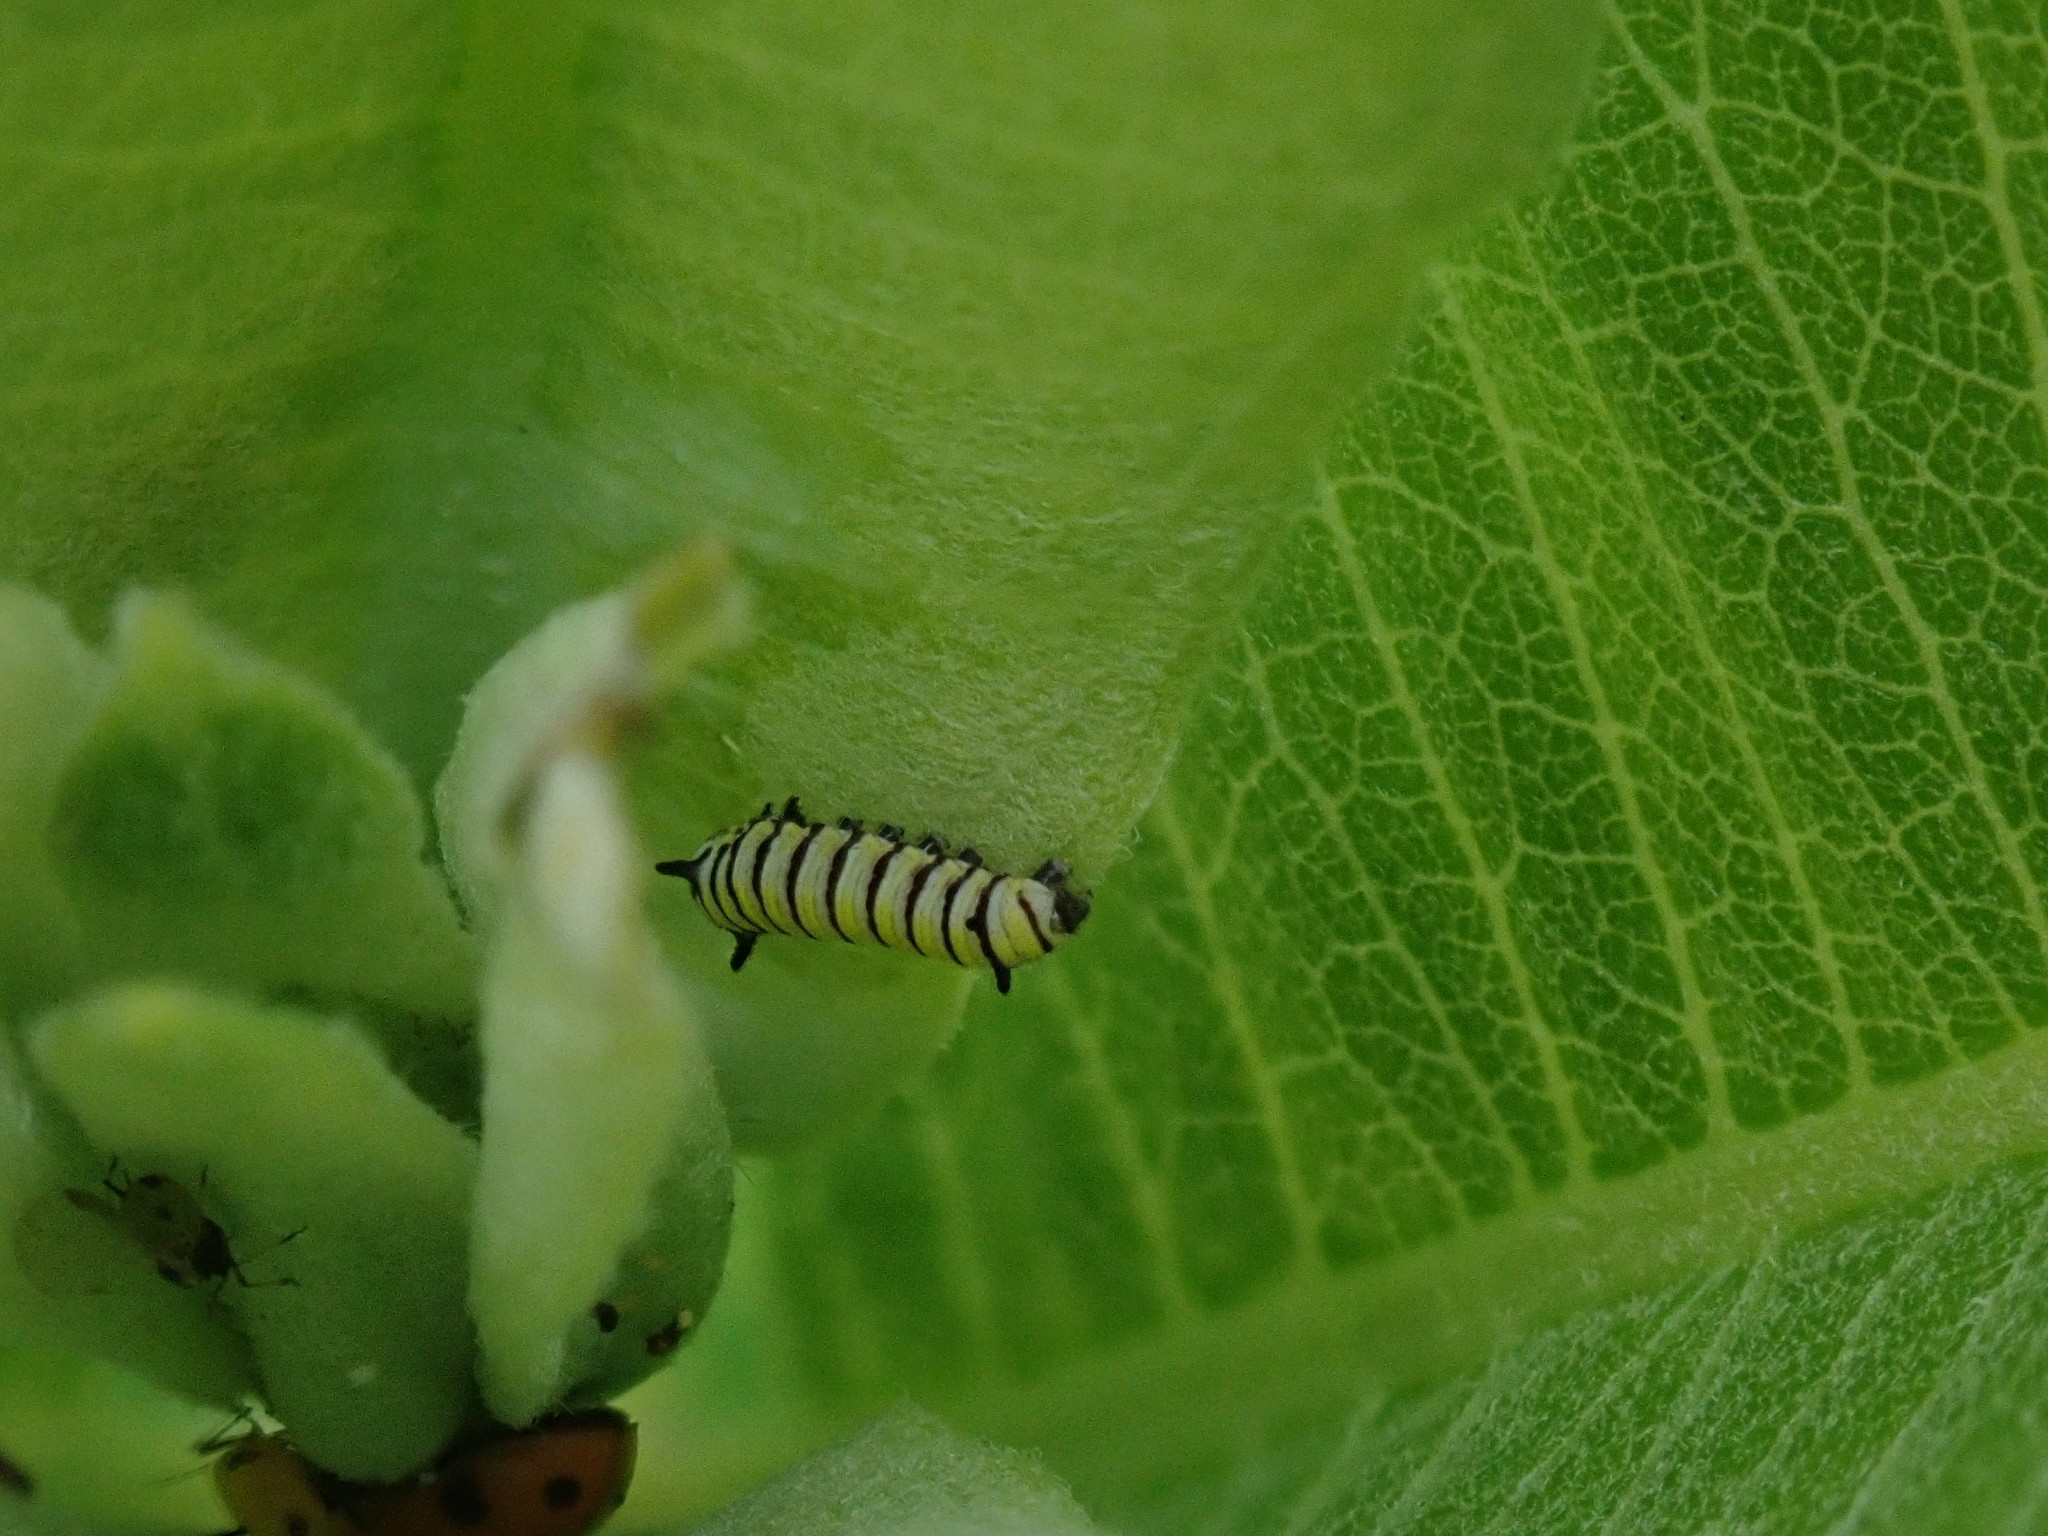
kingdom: Animalia
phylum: Arthropoda
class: Insecta
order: Lepidoptera
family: Nymphalidae
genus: Danaus
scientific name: Danaus plexippus
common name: Monarch
